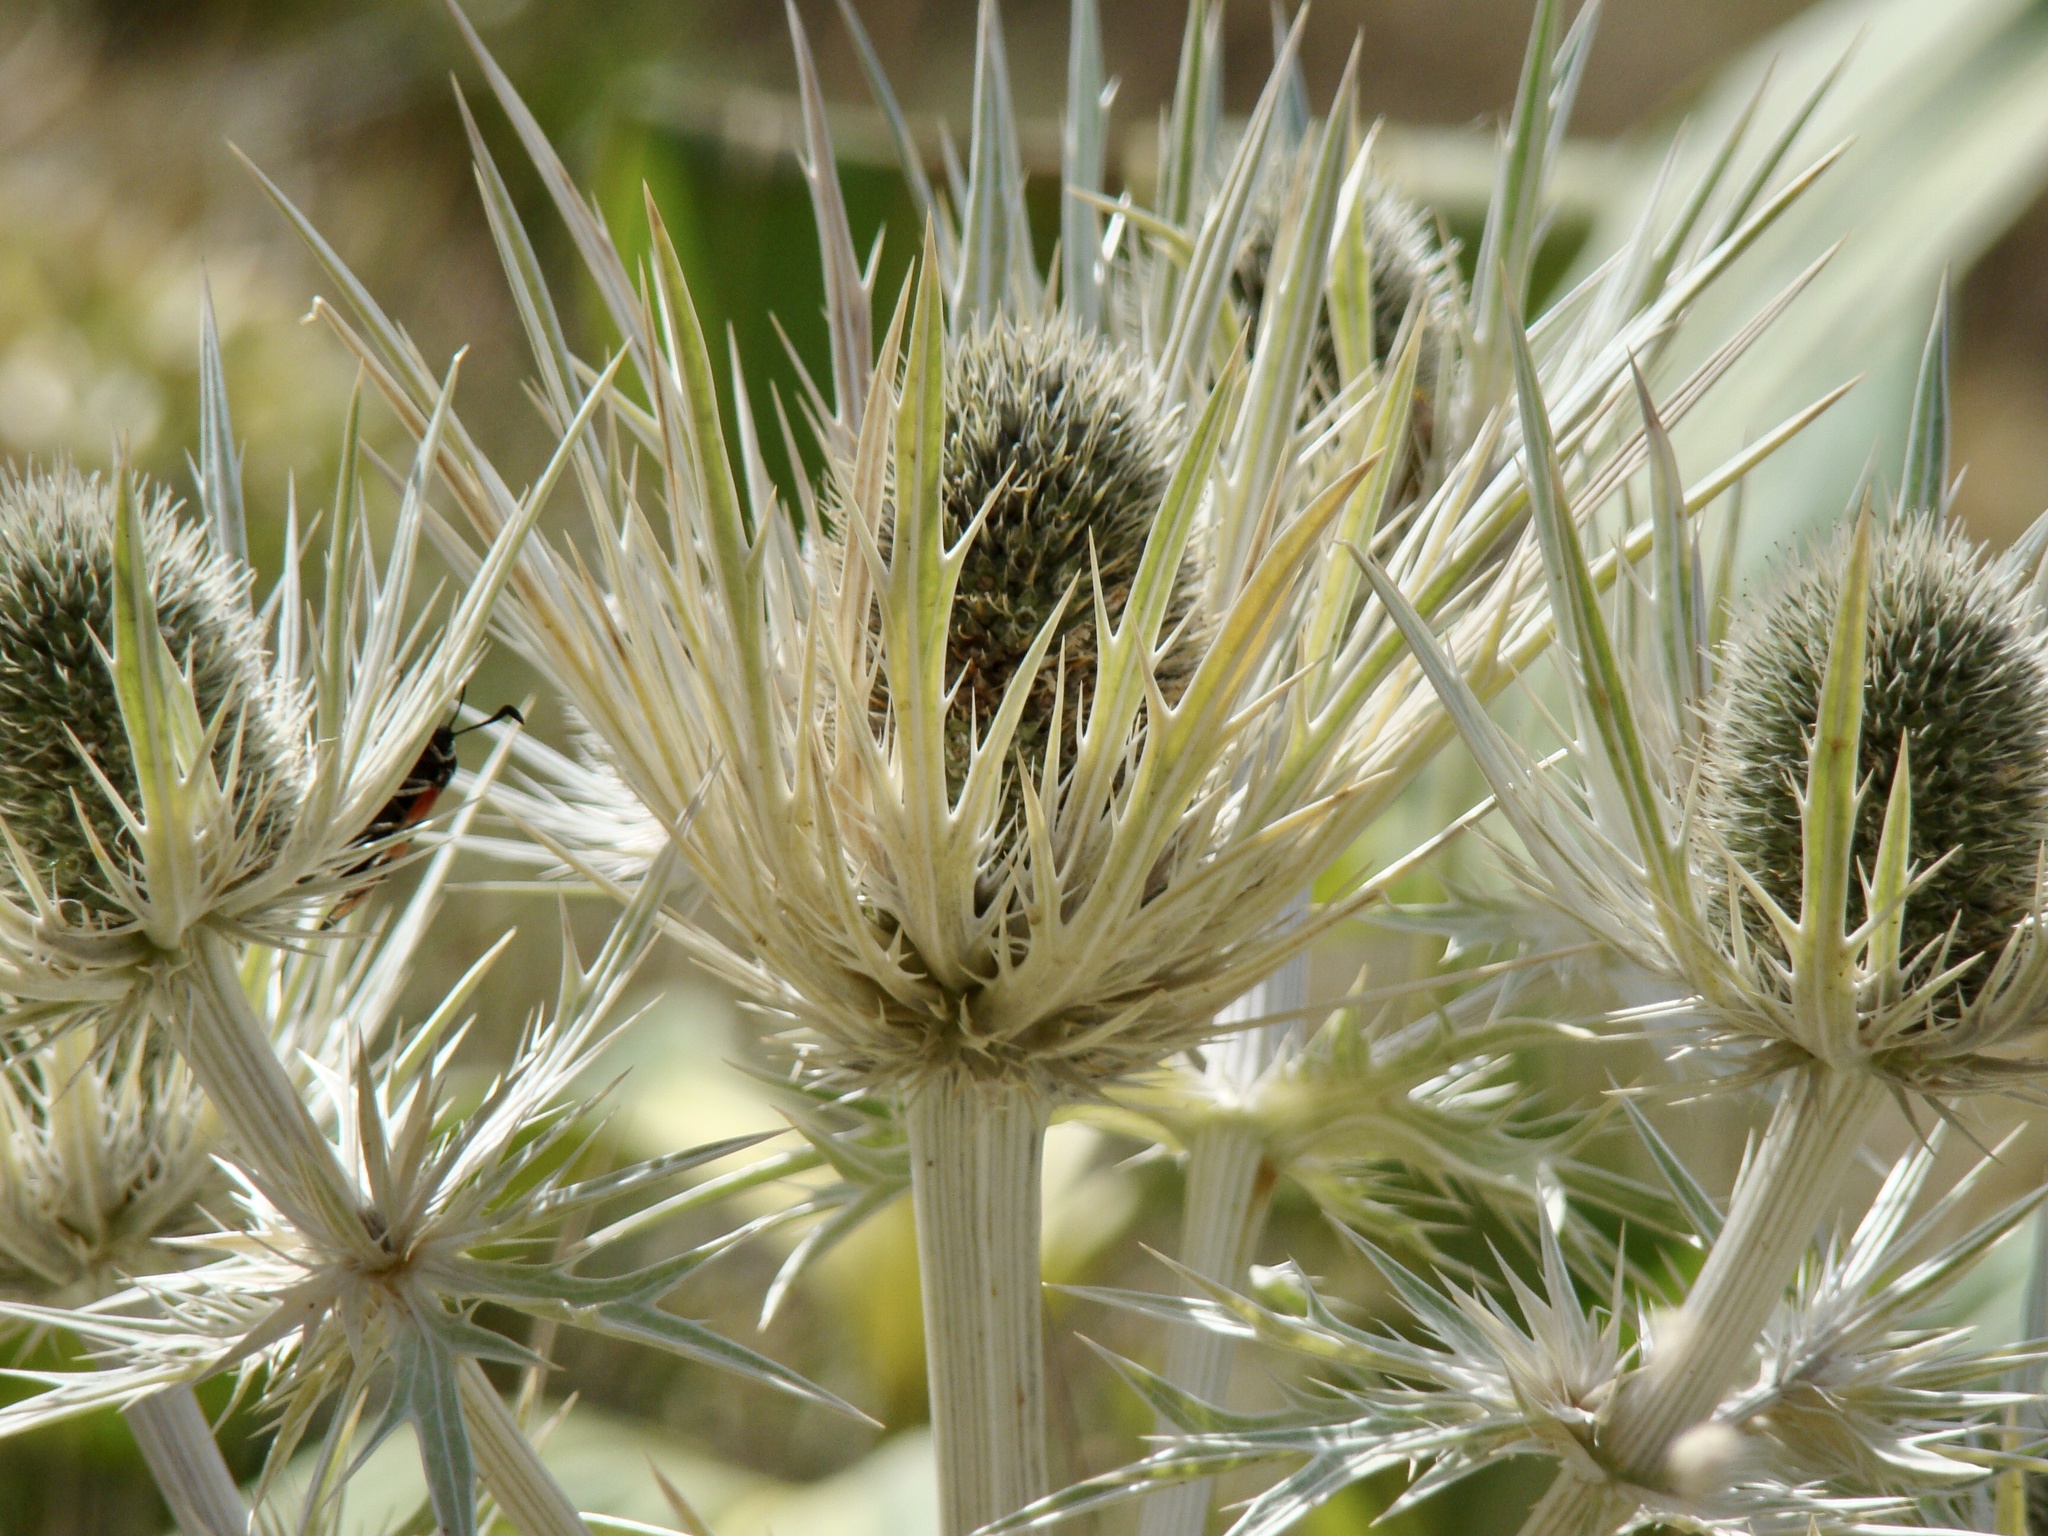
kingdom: Plantae
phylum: Tracheophyta
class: Magnoliopsida
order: Apiales
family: Apiaceae
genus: Eryngium
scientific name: Eryngium spinalba
